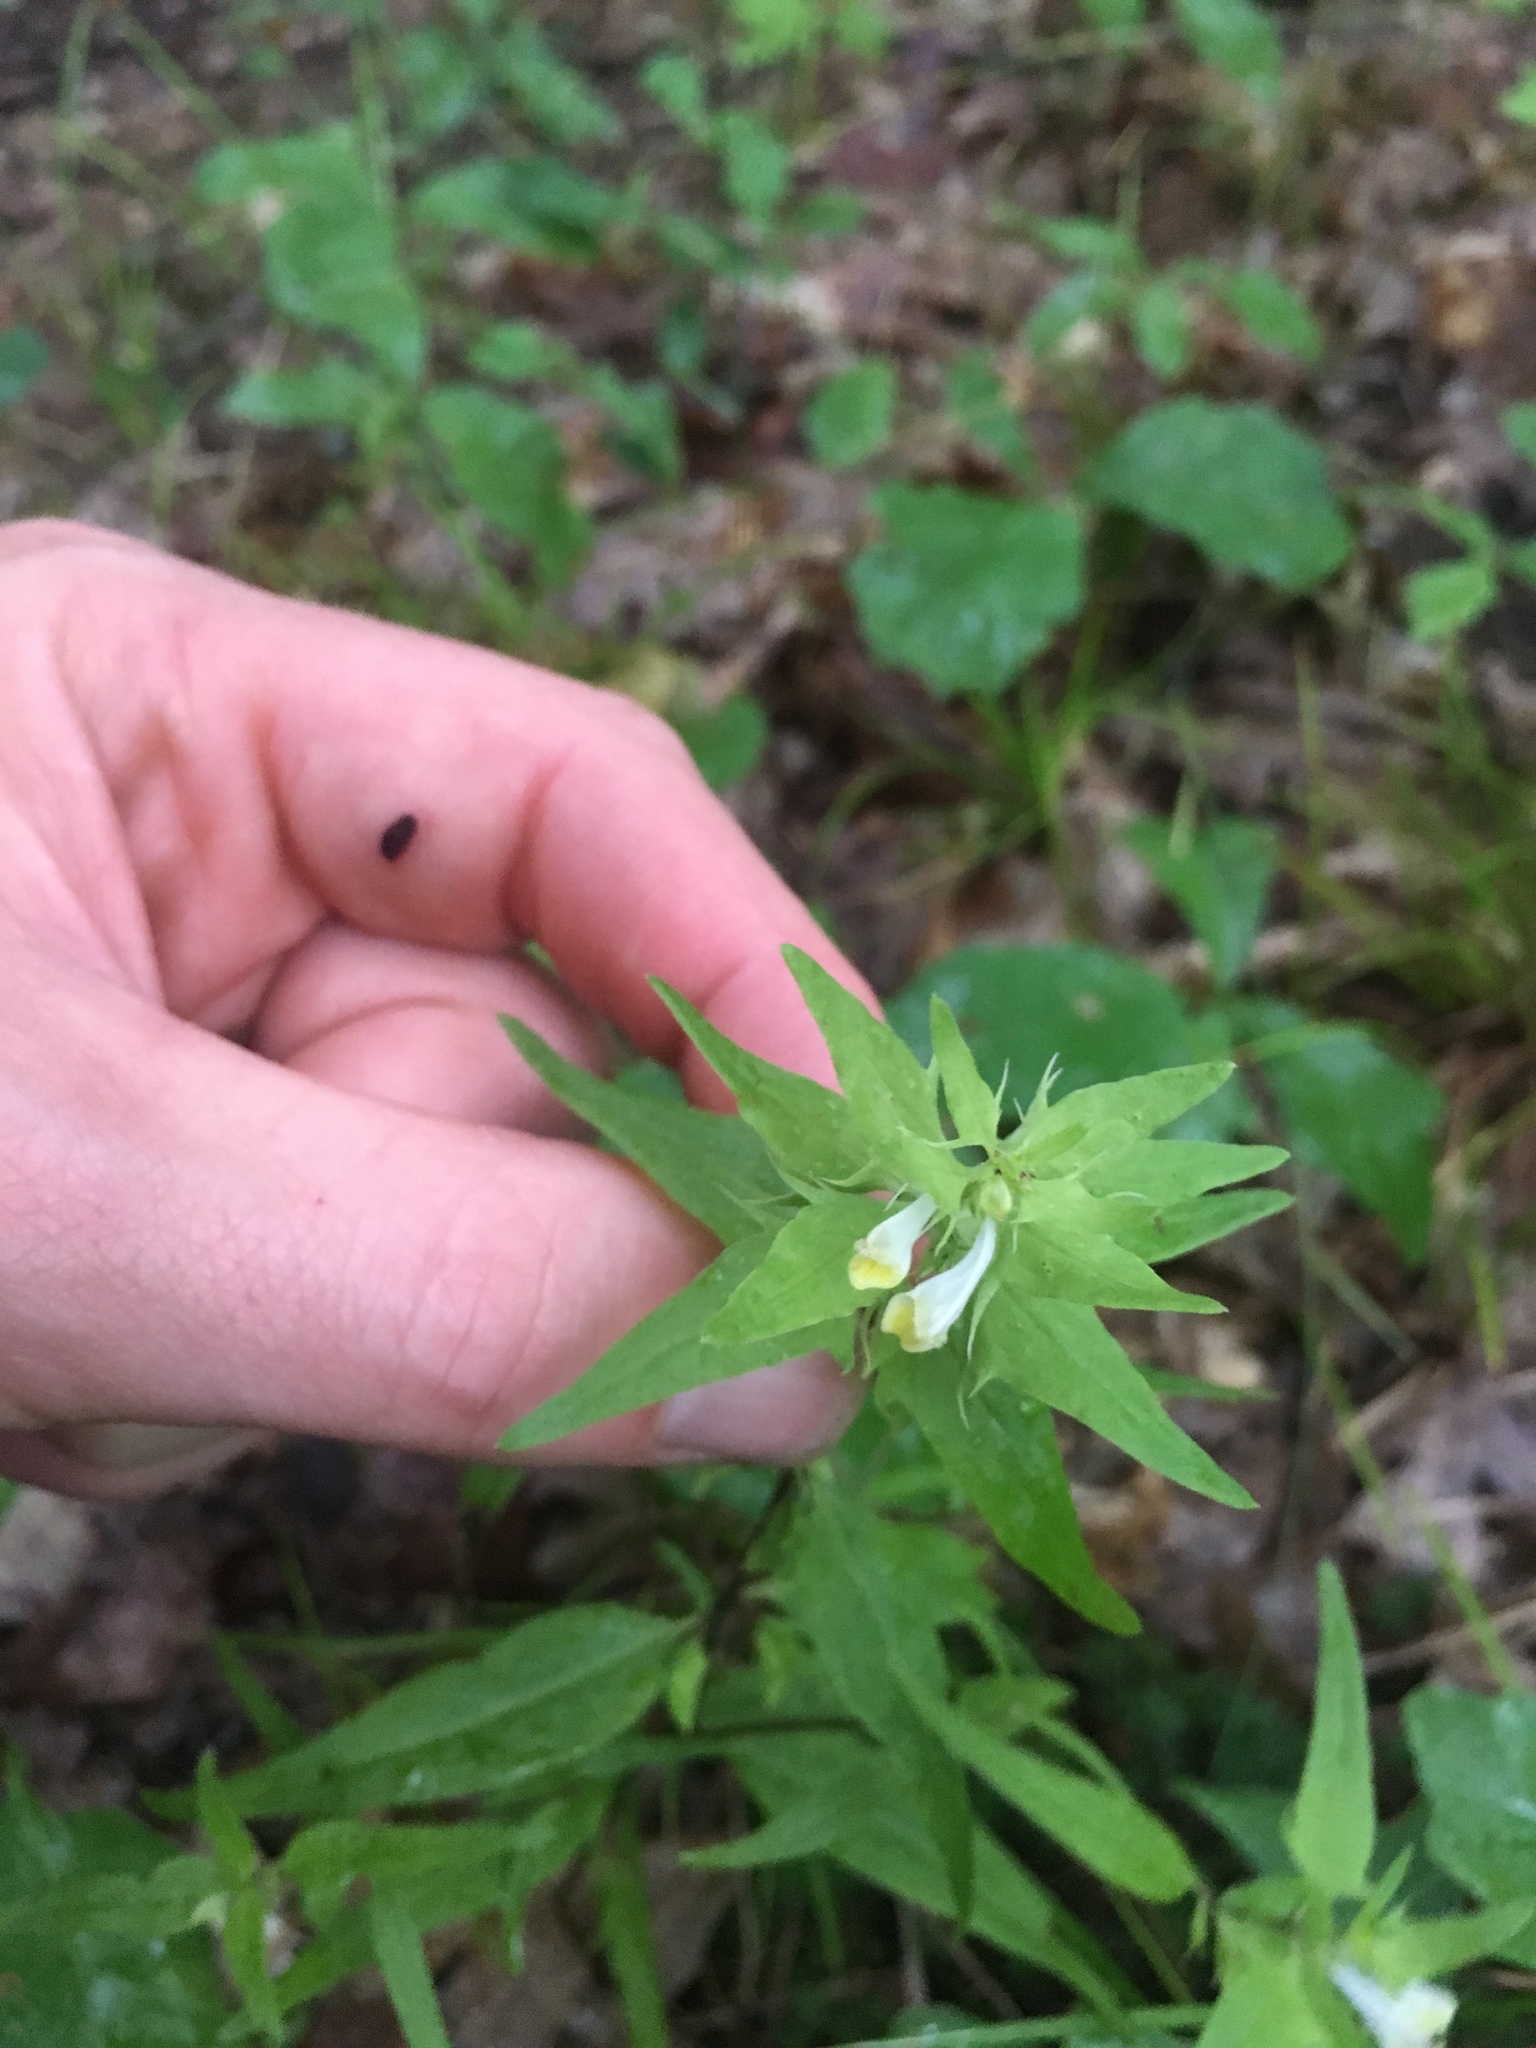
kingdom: Plantae
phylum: Tracheophyta
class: Magnoliopsida
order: Lamiales
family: Orobanchaceae
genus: Melampyrum
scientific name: Melampyrum lineare
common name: American cow-wheat
